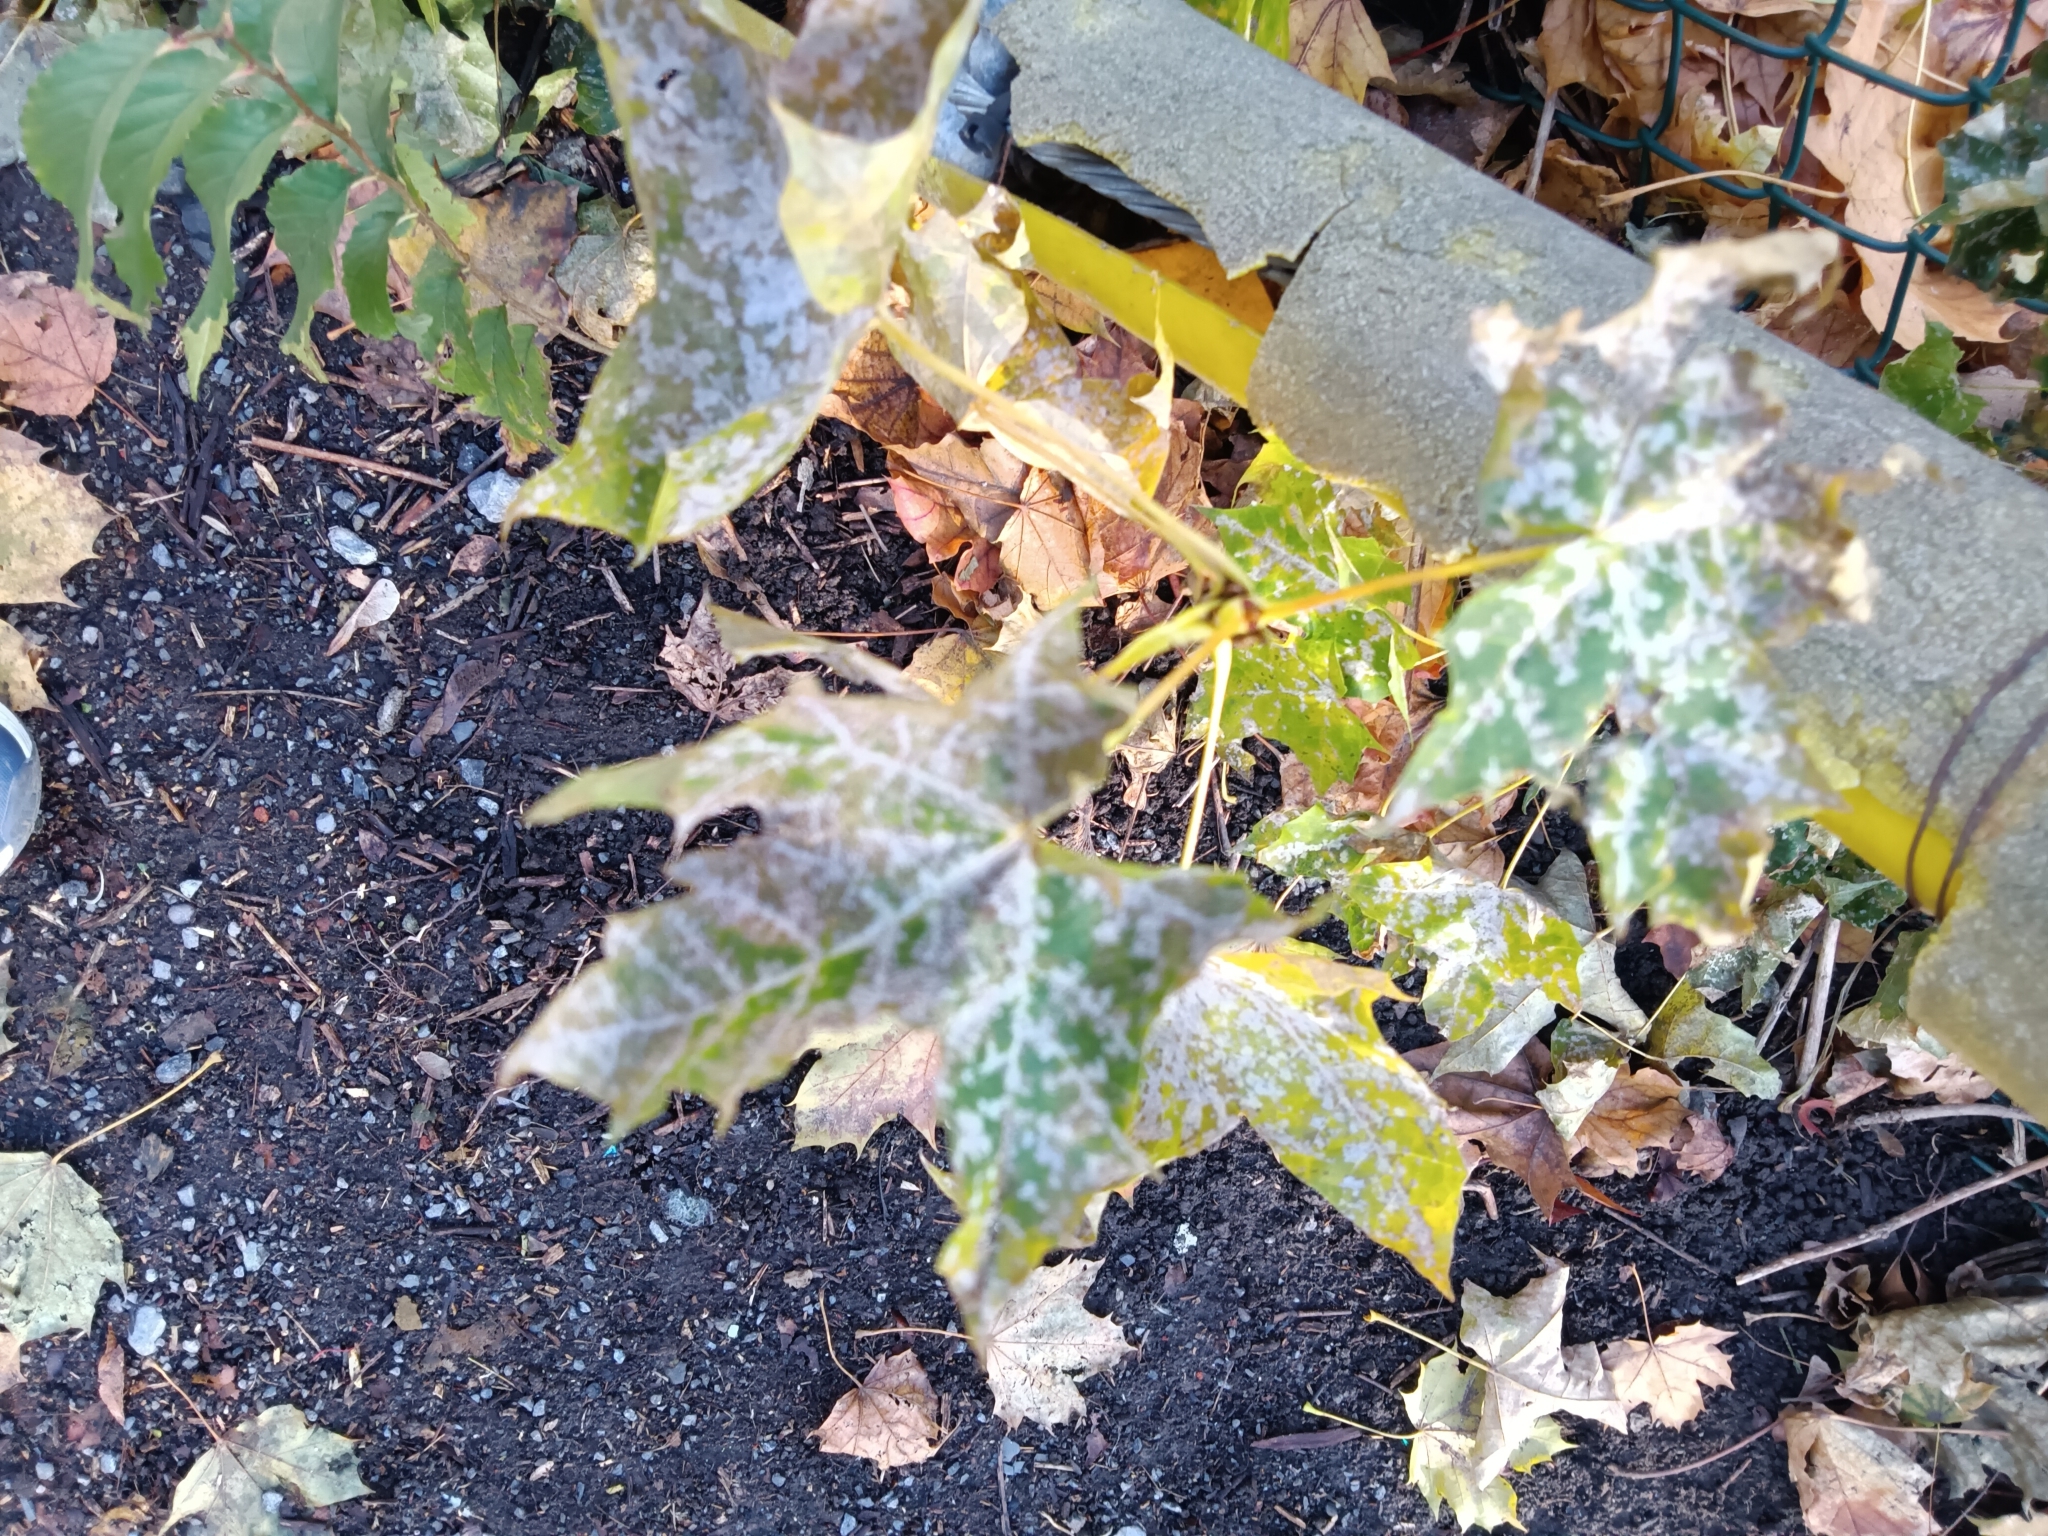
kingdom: Plantae
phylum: Tracheophyta
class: Magnoliopsida
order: Sapindales
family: Sapindaceae
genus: Acer
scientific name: Acer platanoides
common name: Norway maple
